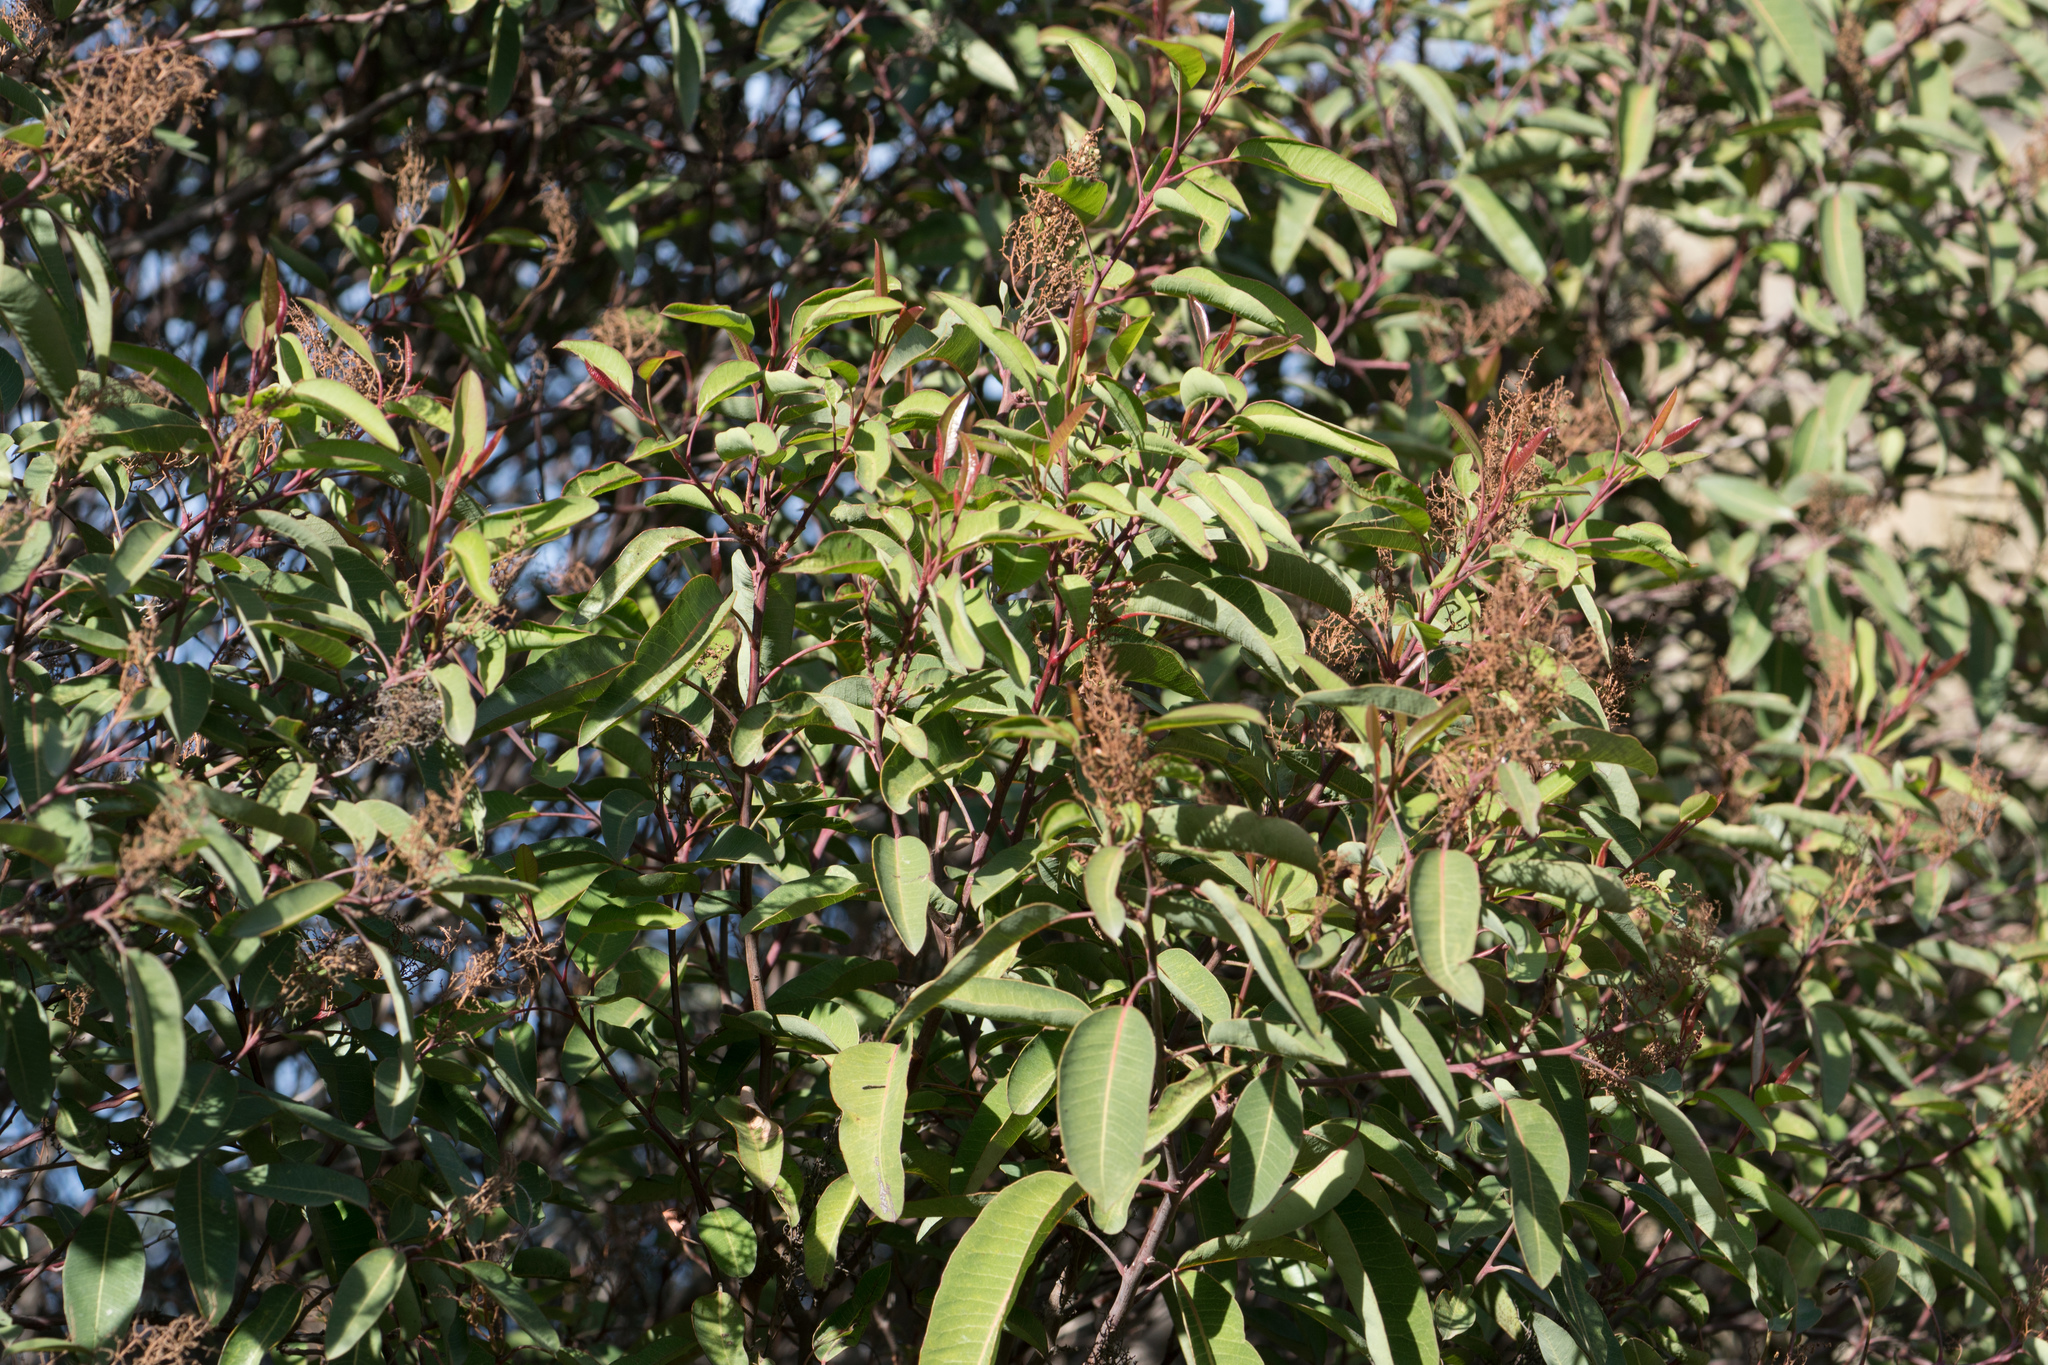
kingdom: Plantae
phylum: Tracheophyta
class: Magnoliopsida
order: Sapindales
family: Anacardiaceae
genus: Malosma
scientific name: Malosma laurina
